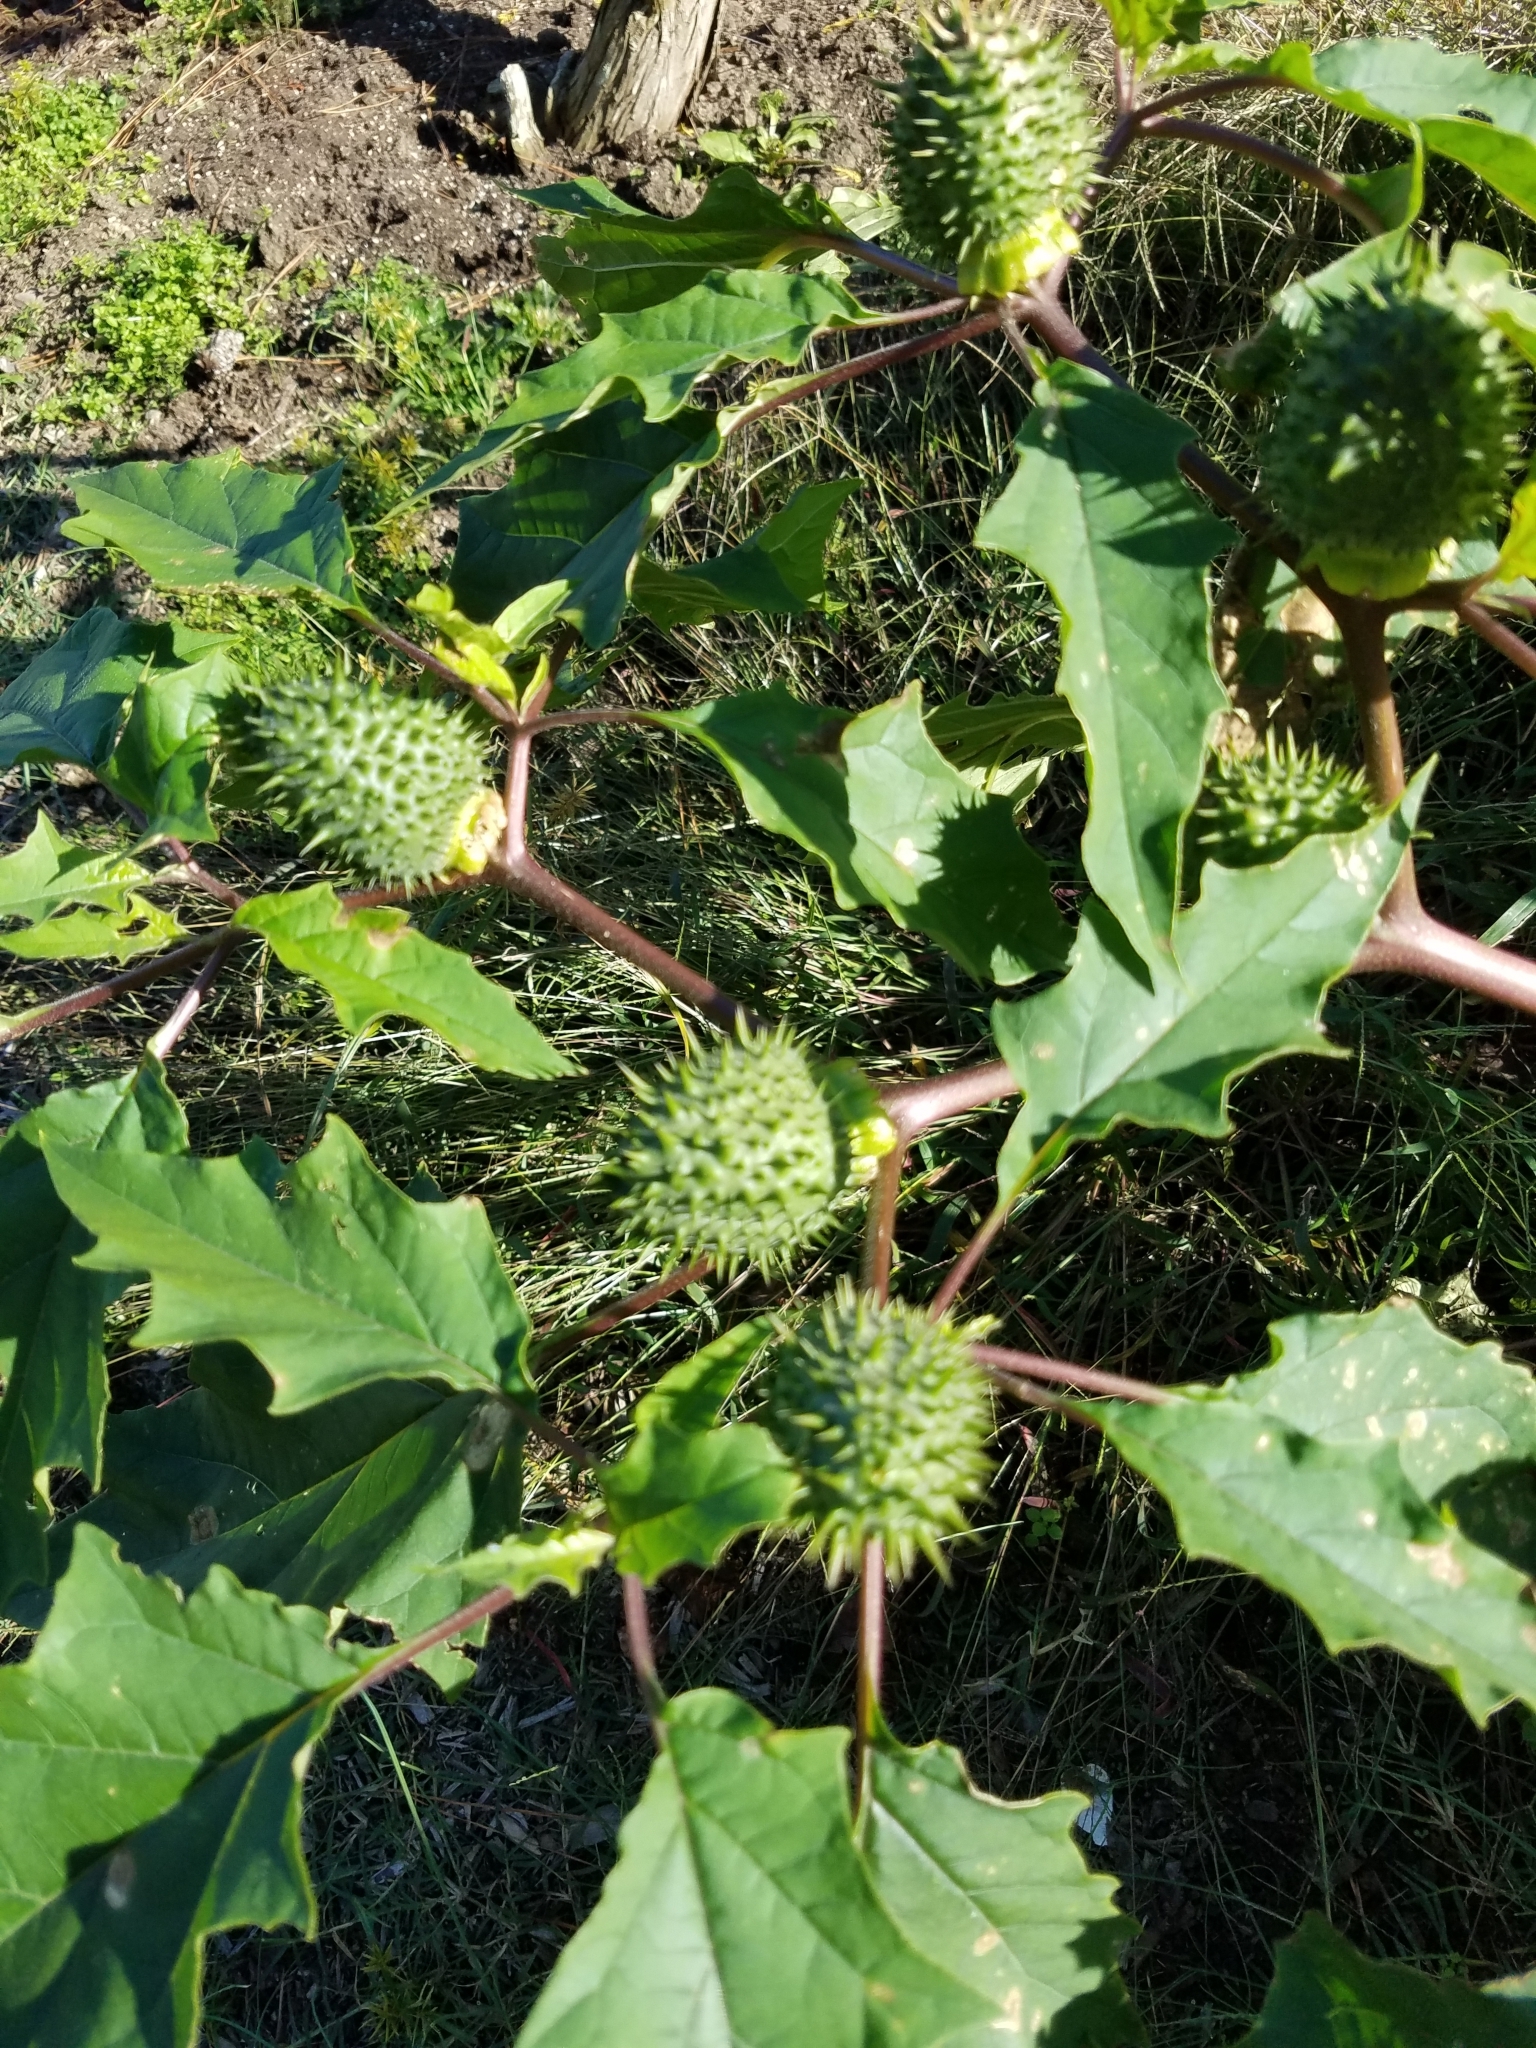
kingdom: Plantae
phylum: Tracheophyta
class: Magnoliopsida
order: Solanales
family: Solanaceae
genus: Datura
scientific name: Datura stramonium
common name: Thorn-apple
